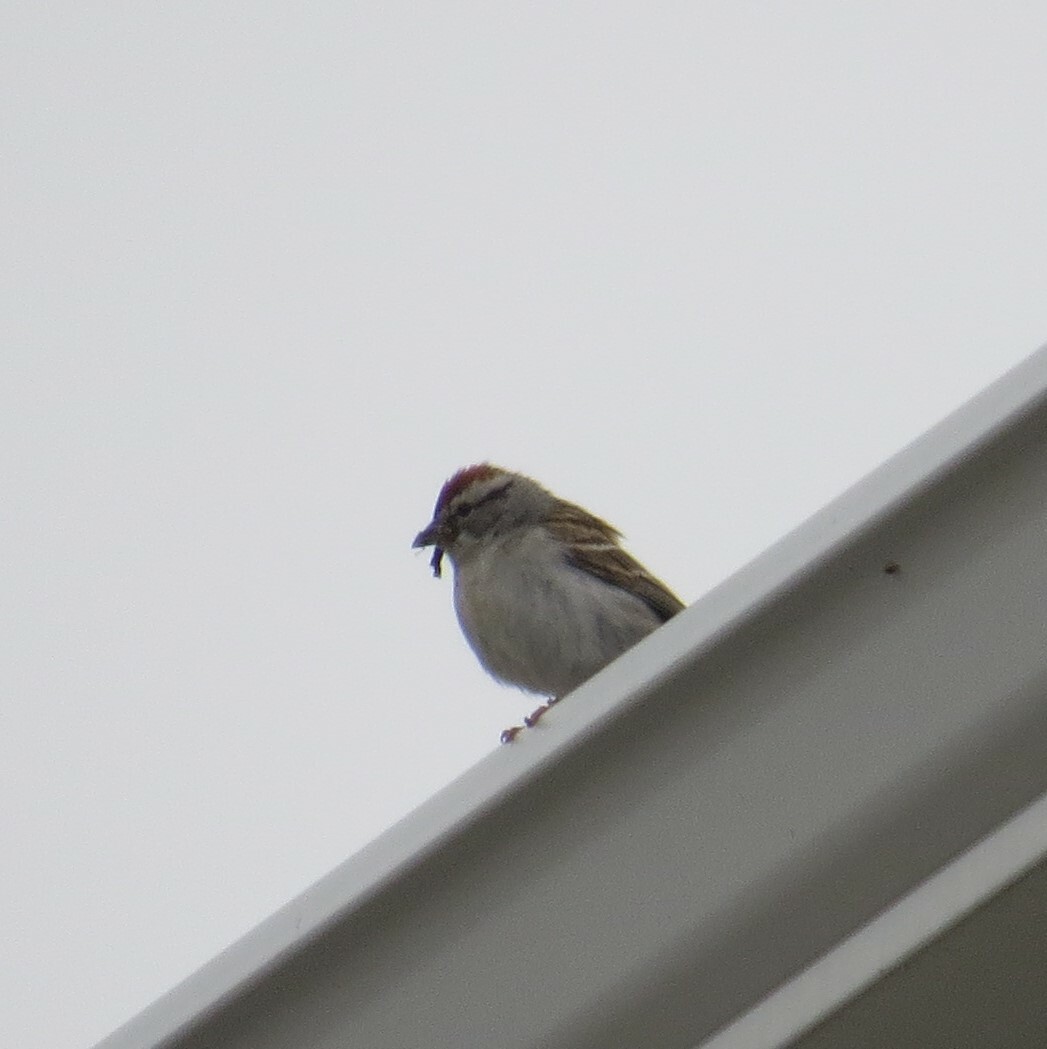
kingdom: Animalia
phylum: Chordata
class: Aves
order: Passeriformes
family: Passerellidae
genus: Spizella
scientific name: Spizella passerina
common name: Chipping sparrow
